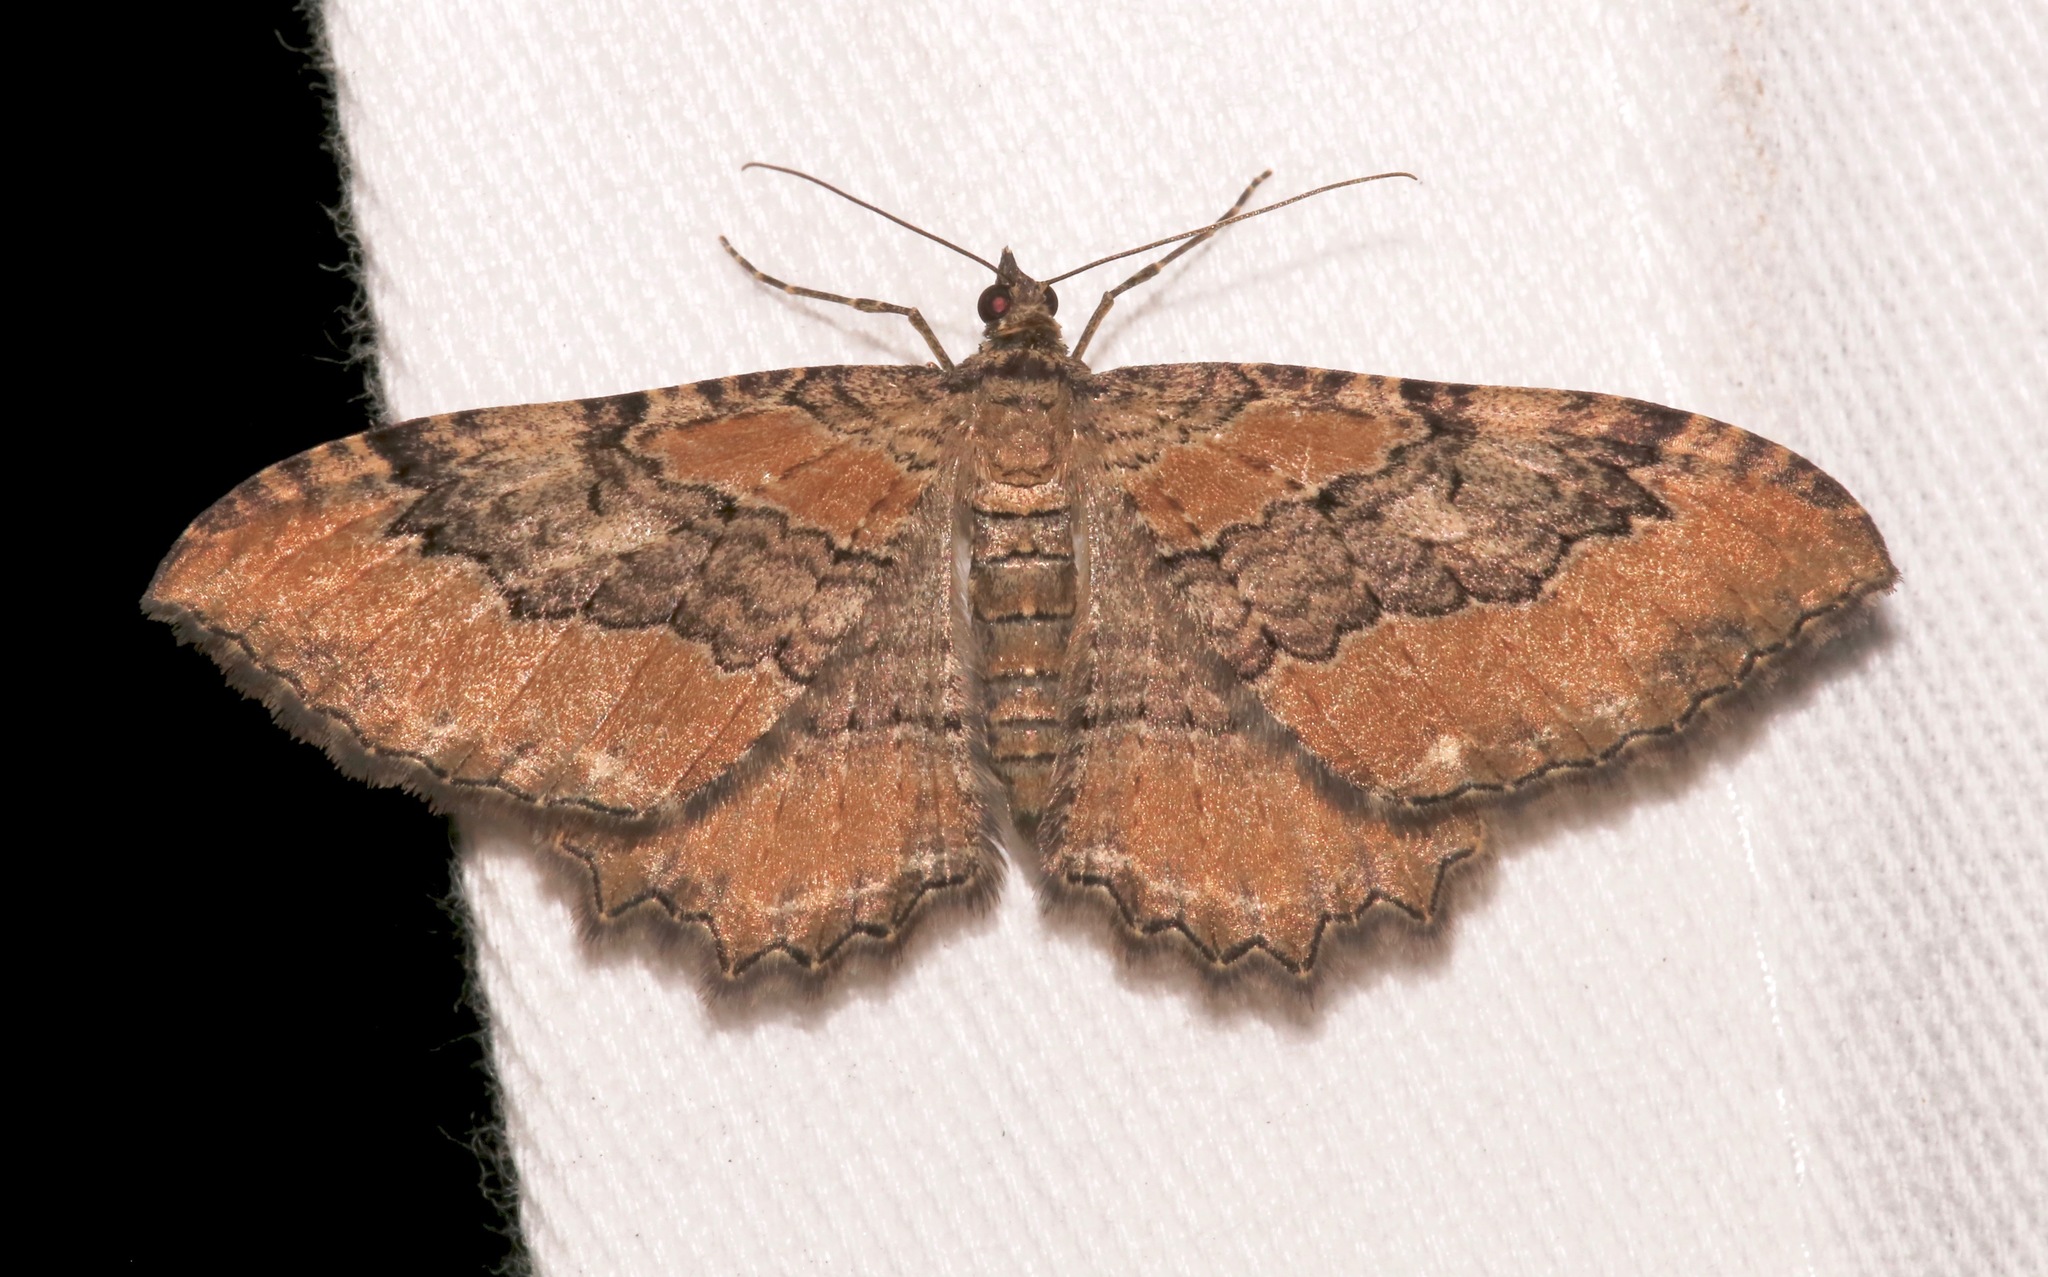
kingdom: Animalia
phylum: Arthropoda
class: Insecta
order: Lepidoptera
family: Geometridae
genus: Rheumaptera
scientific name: Rheumaptera
